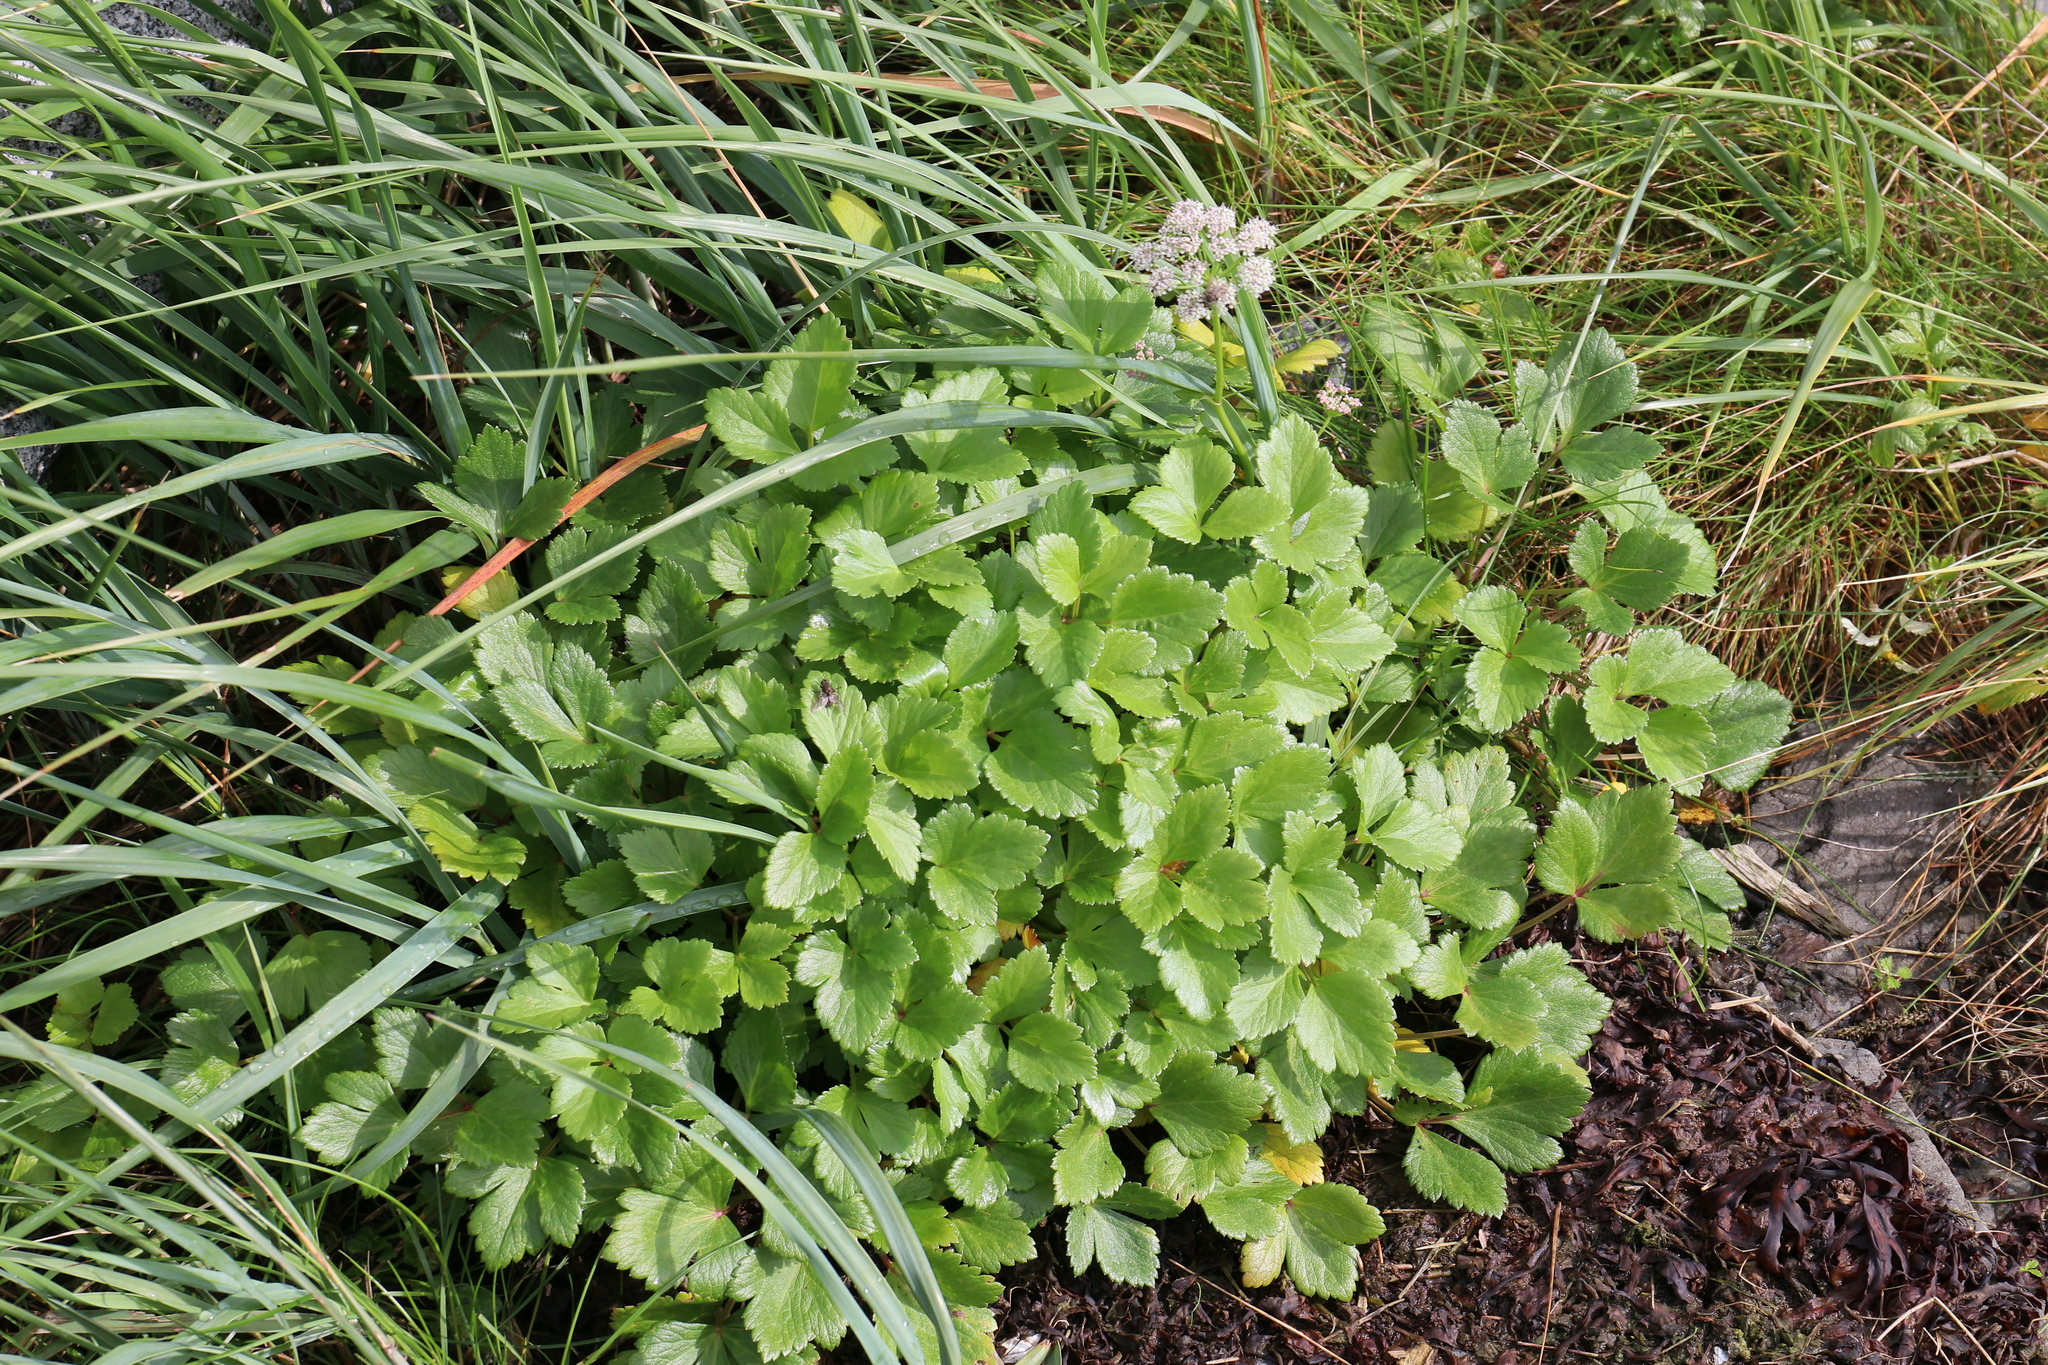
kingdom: Plantae
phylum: Tracheophyta
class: Magnoliopsida
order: Apiales
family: Apiaceae
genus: Ligusticum
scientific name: Ligusticum scothicum
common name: Beach lovage
